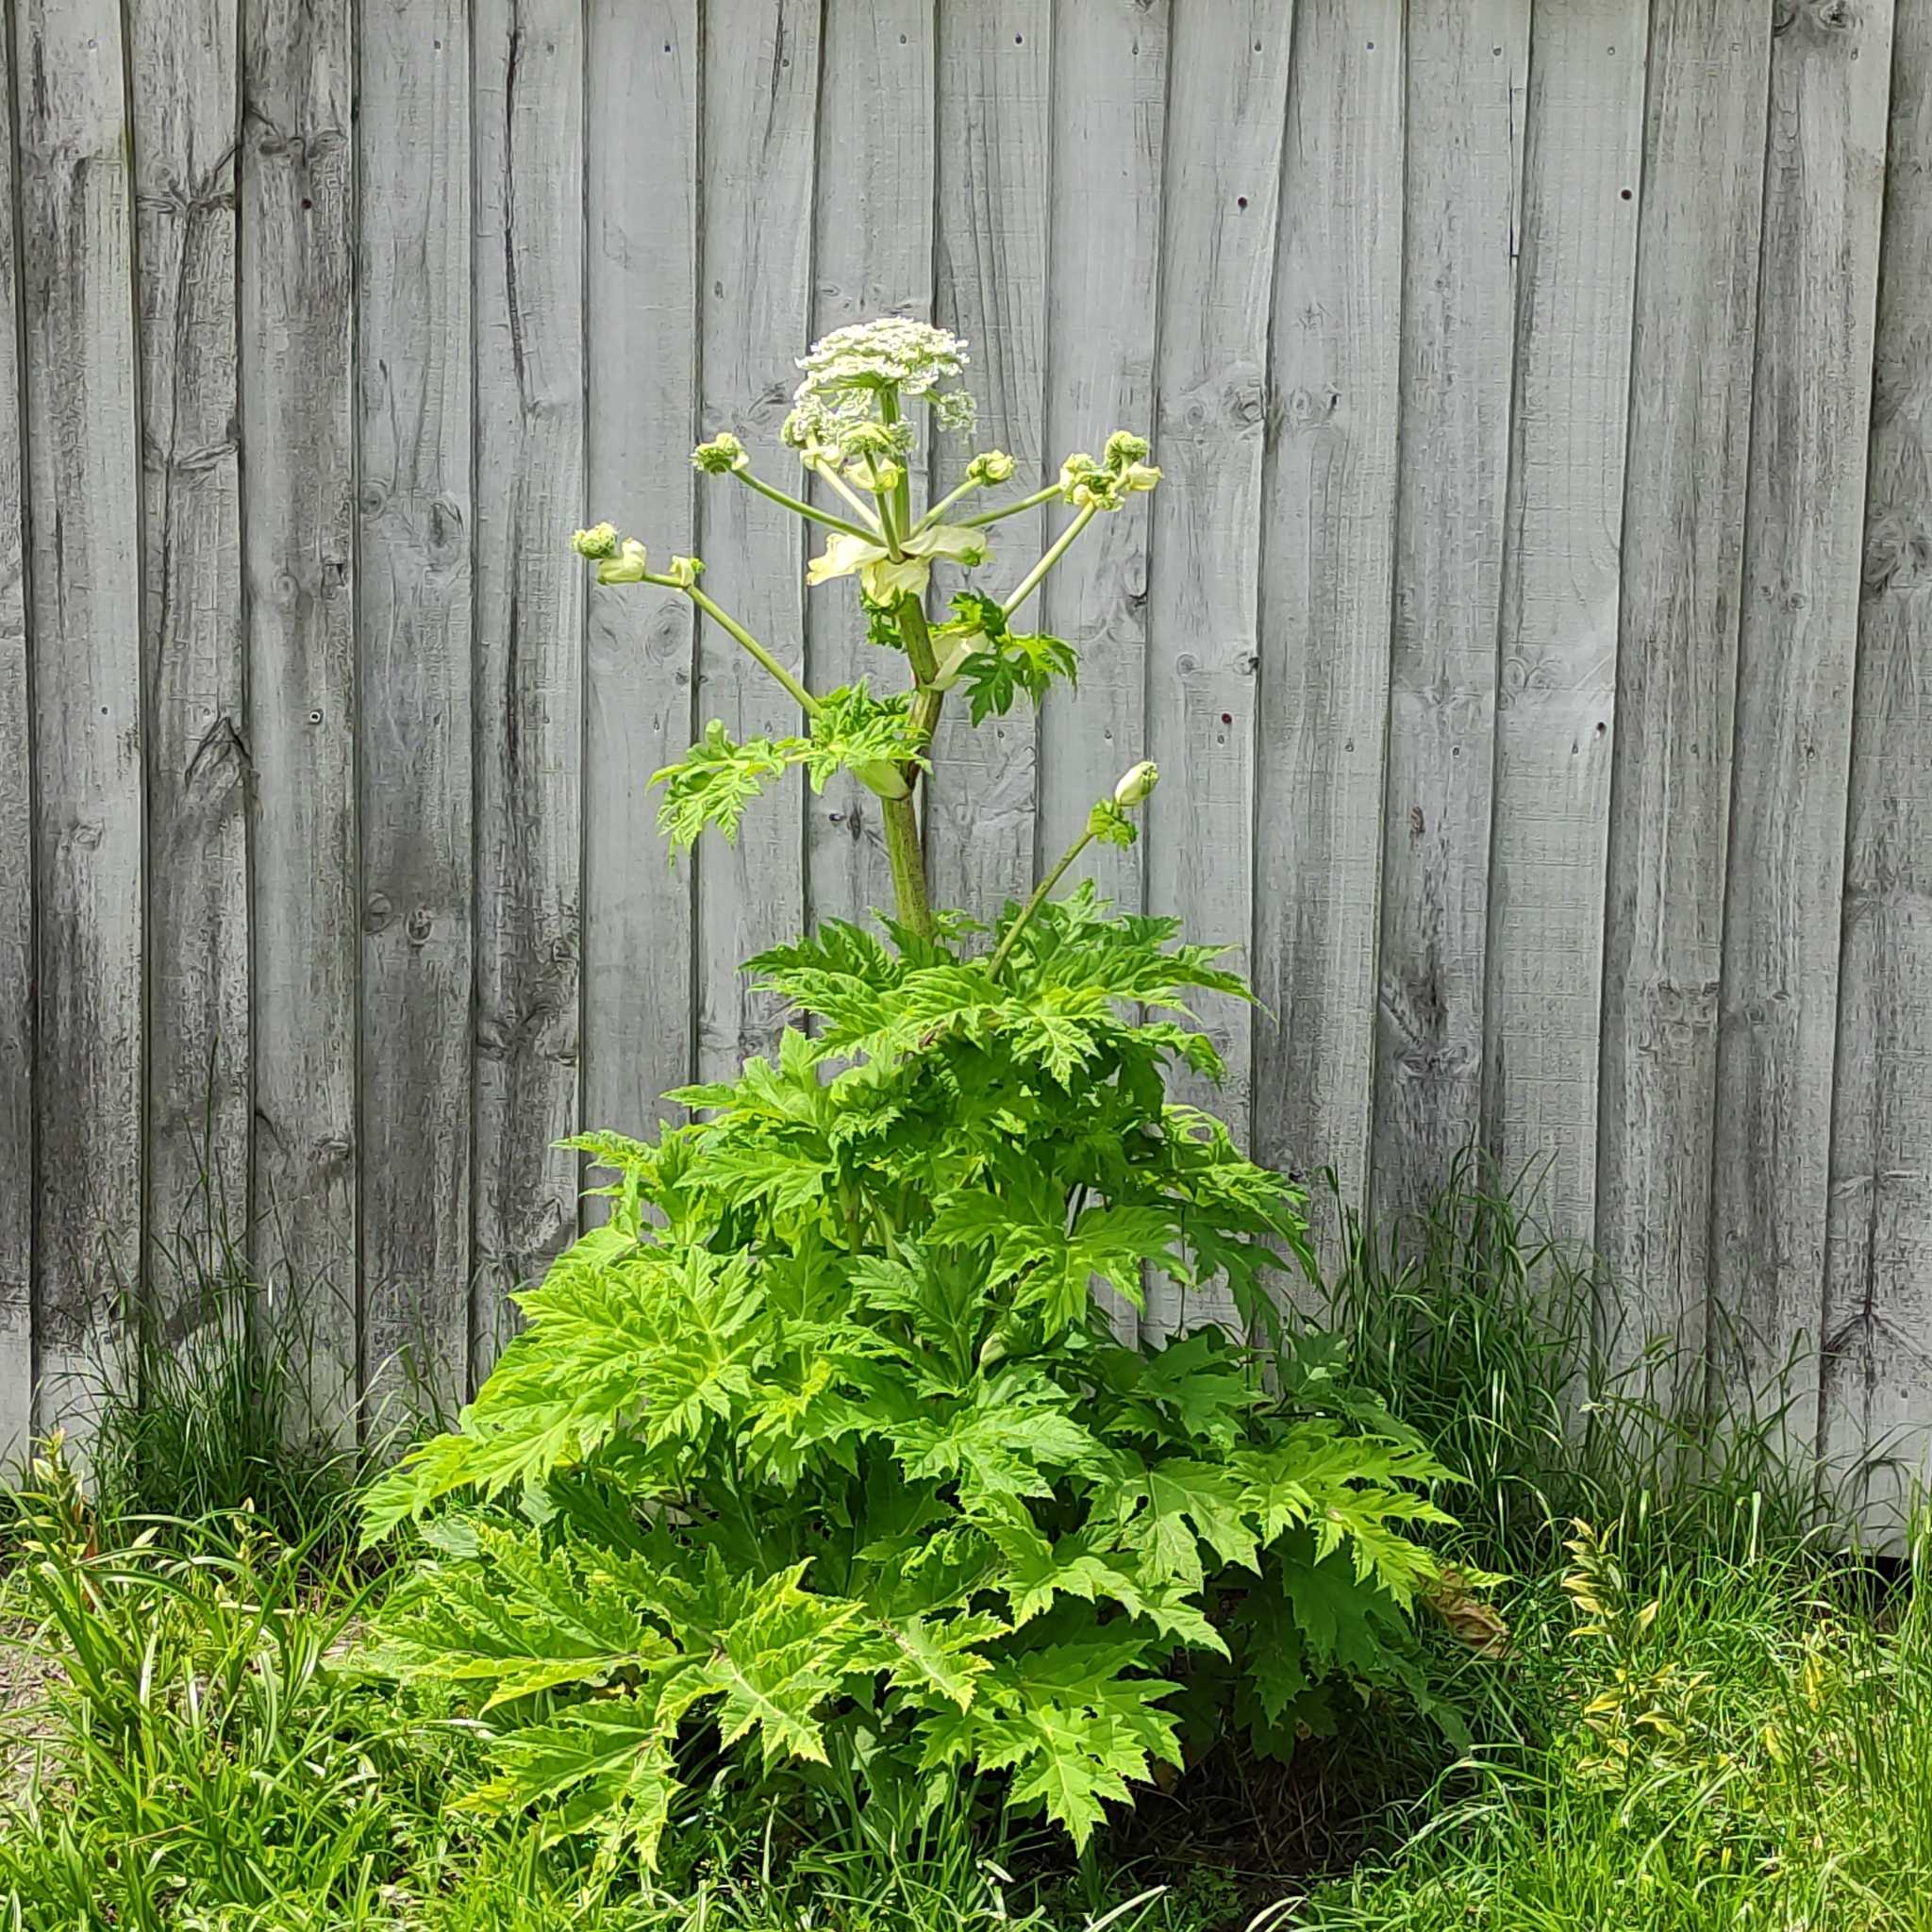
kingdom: Plantae
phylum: Tracheophyta
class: Magnoliopsida
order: Apiales
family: Apiaceae
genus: Heracleum
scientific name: Heracleum mantegazzianum
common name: Giant hogweed
